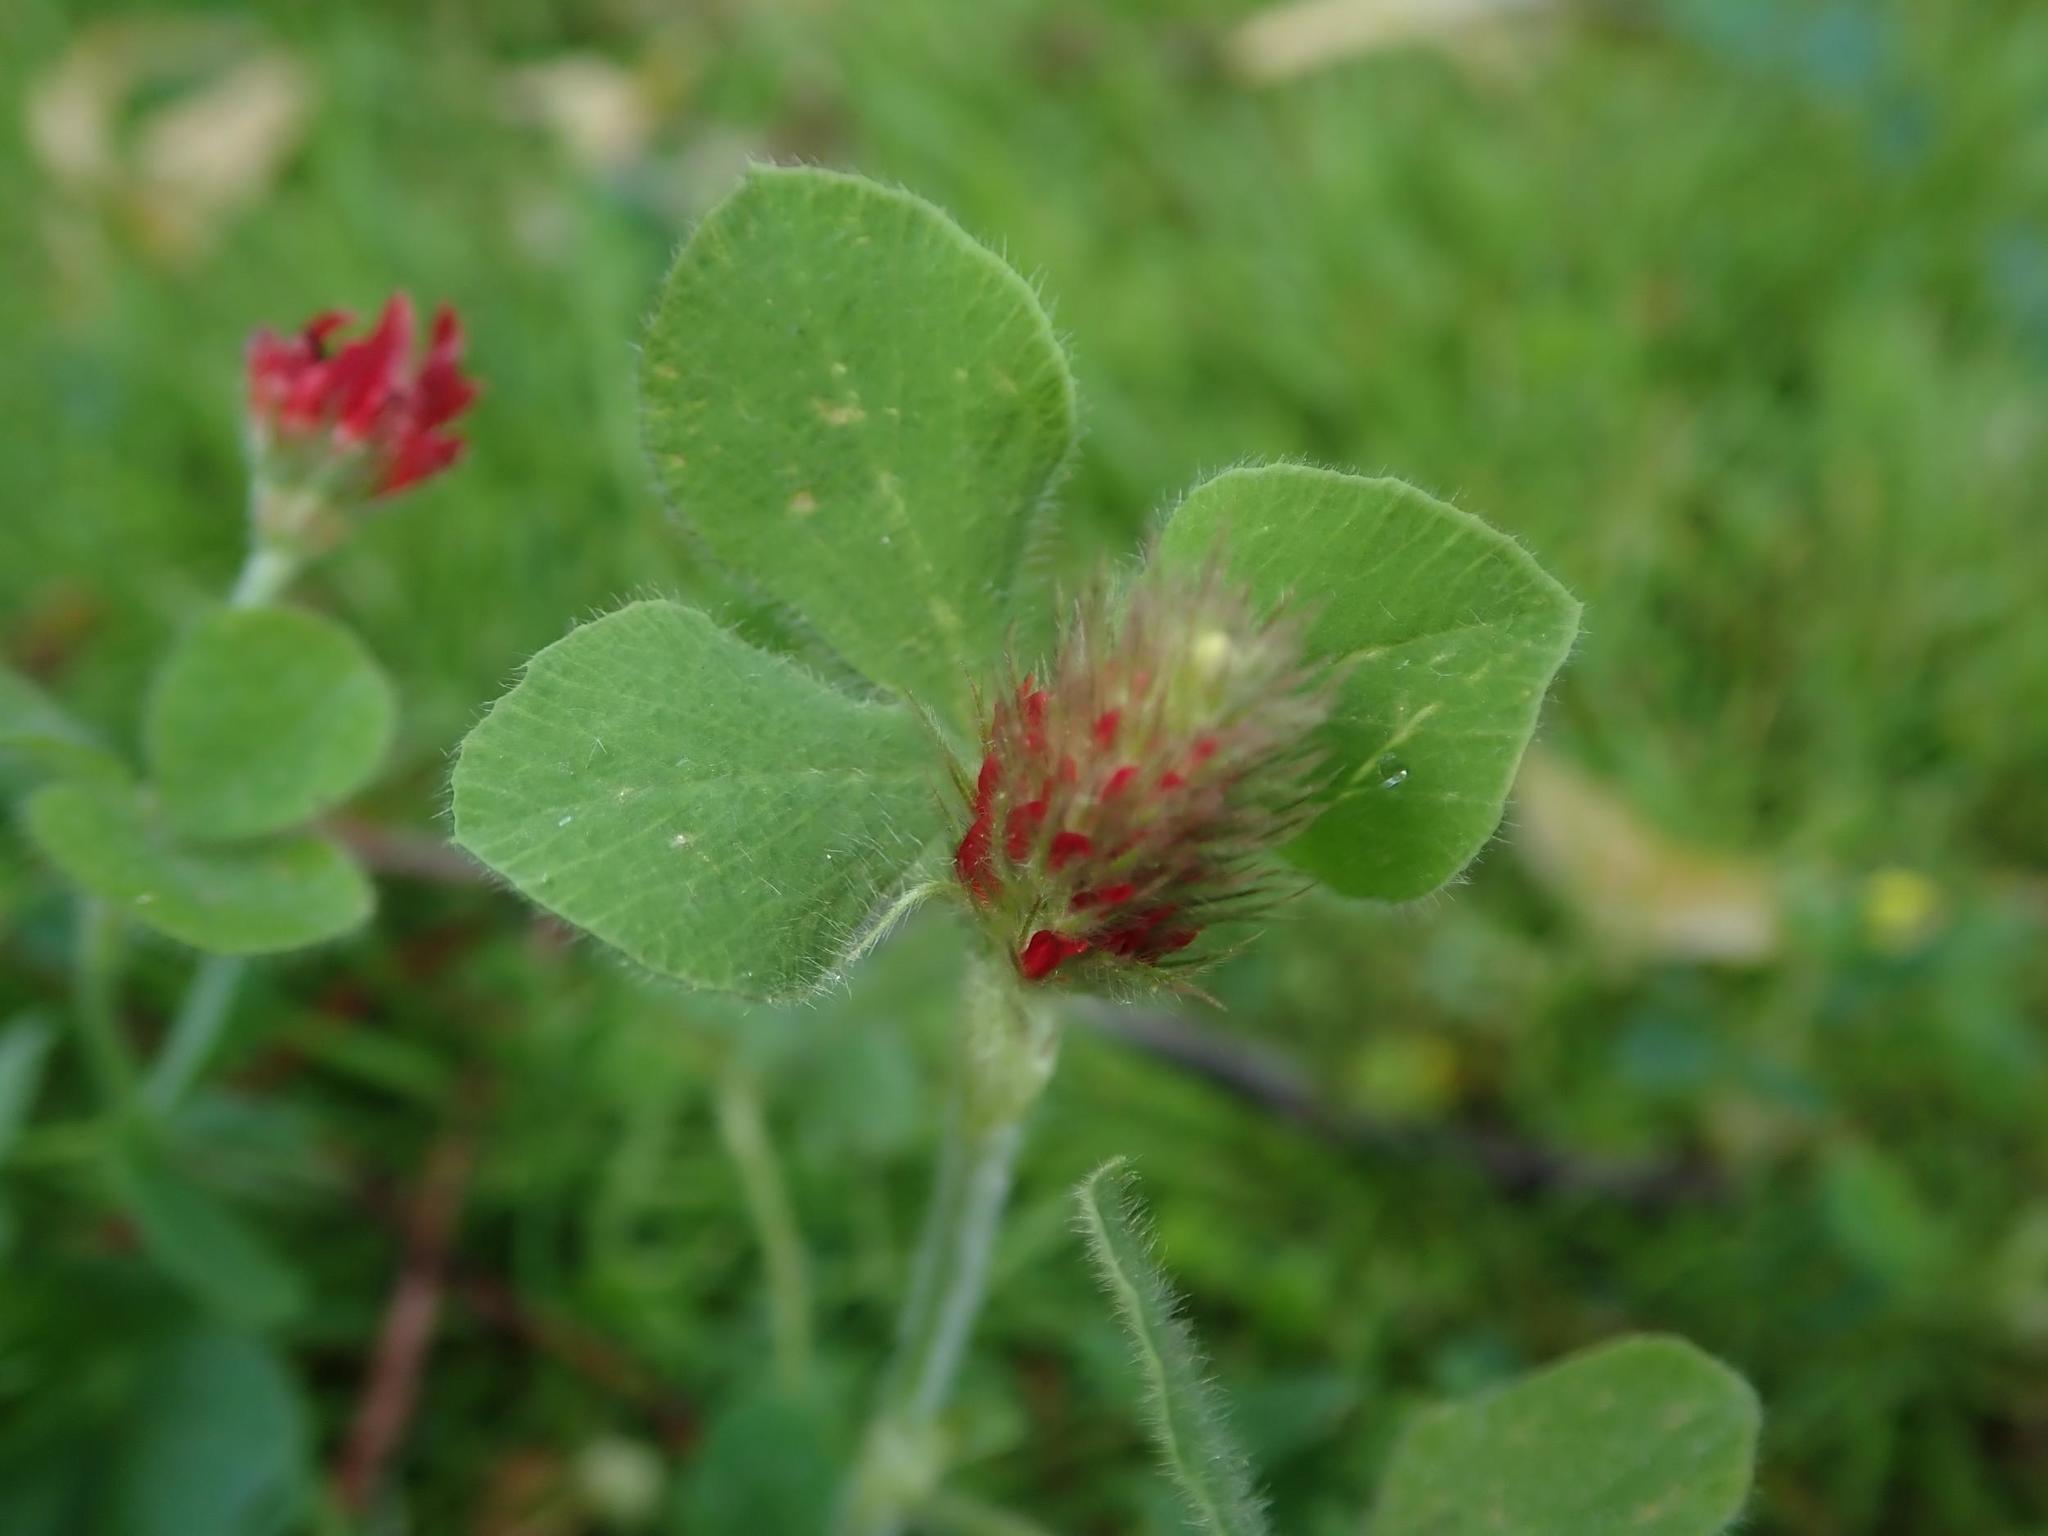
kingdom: Plantae
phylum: Tracheophyta
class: Magnoliopsida
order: Fabales
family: Fabaceae
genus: Trifolium
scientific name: Trifolium incarnatum
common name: Crimson clover
